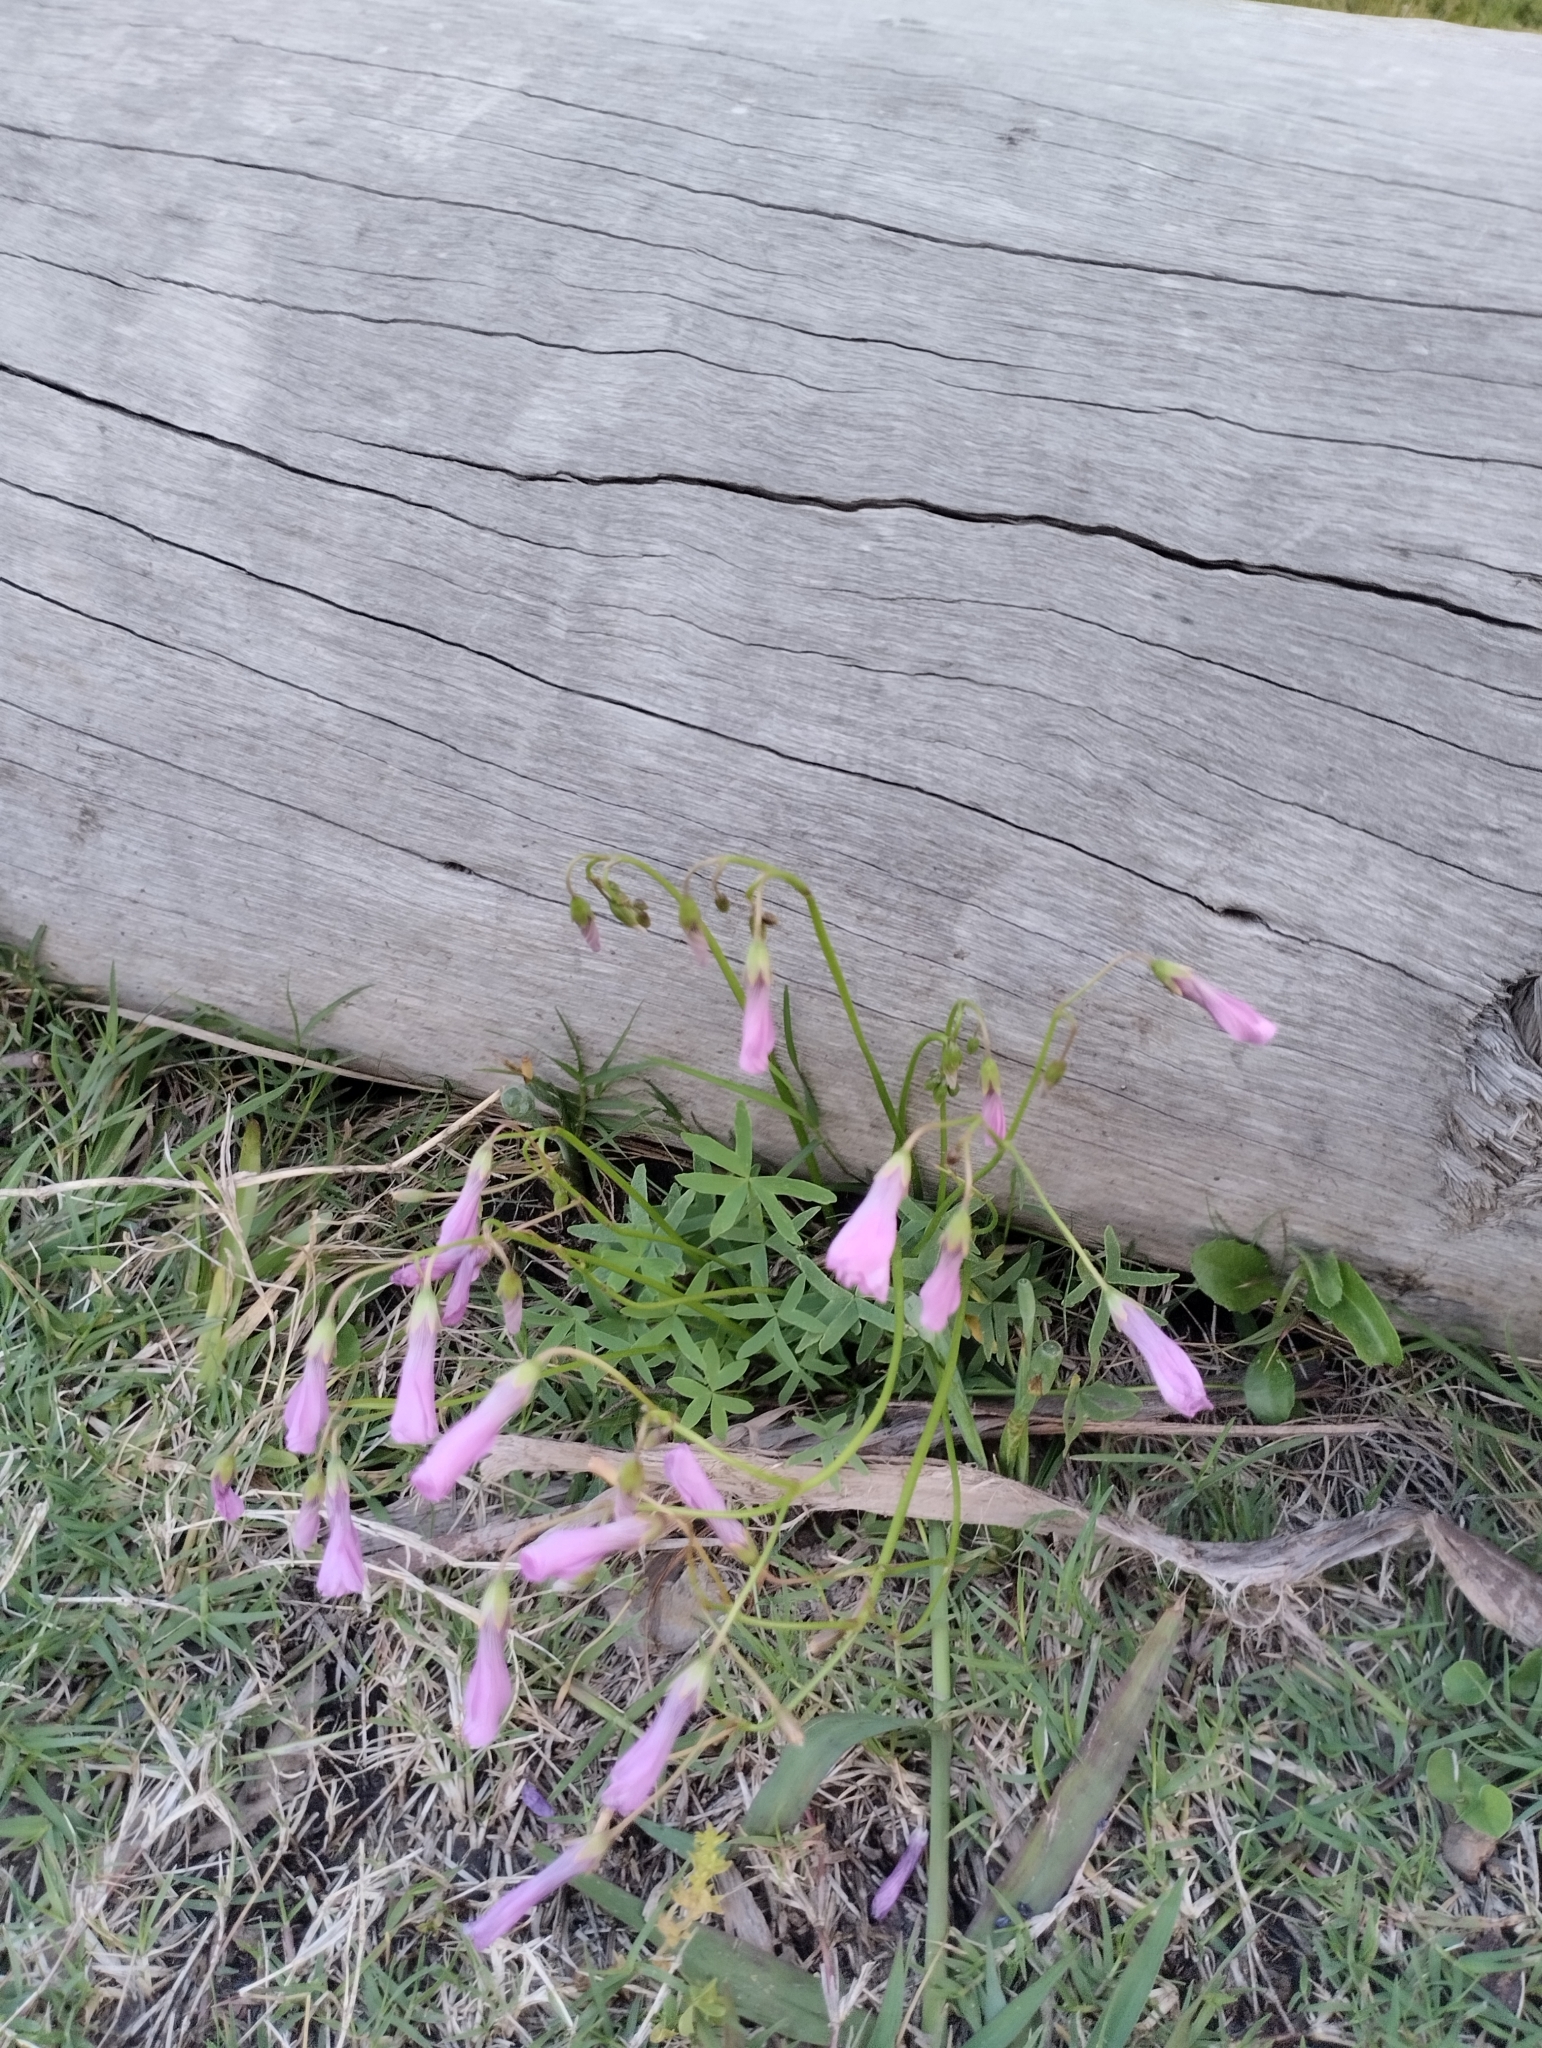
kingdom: Plantae
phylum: Tracheophyta
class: Magnoliopsida
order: Oxalidales
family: Oxalidaceae
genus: Oxalis
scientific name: Oxalis bipartita
